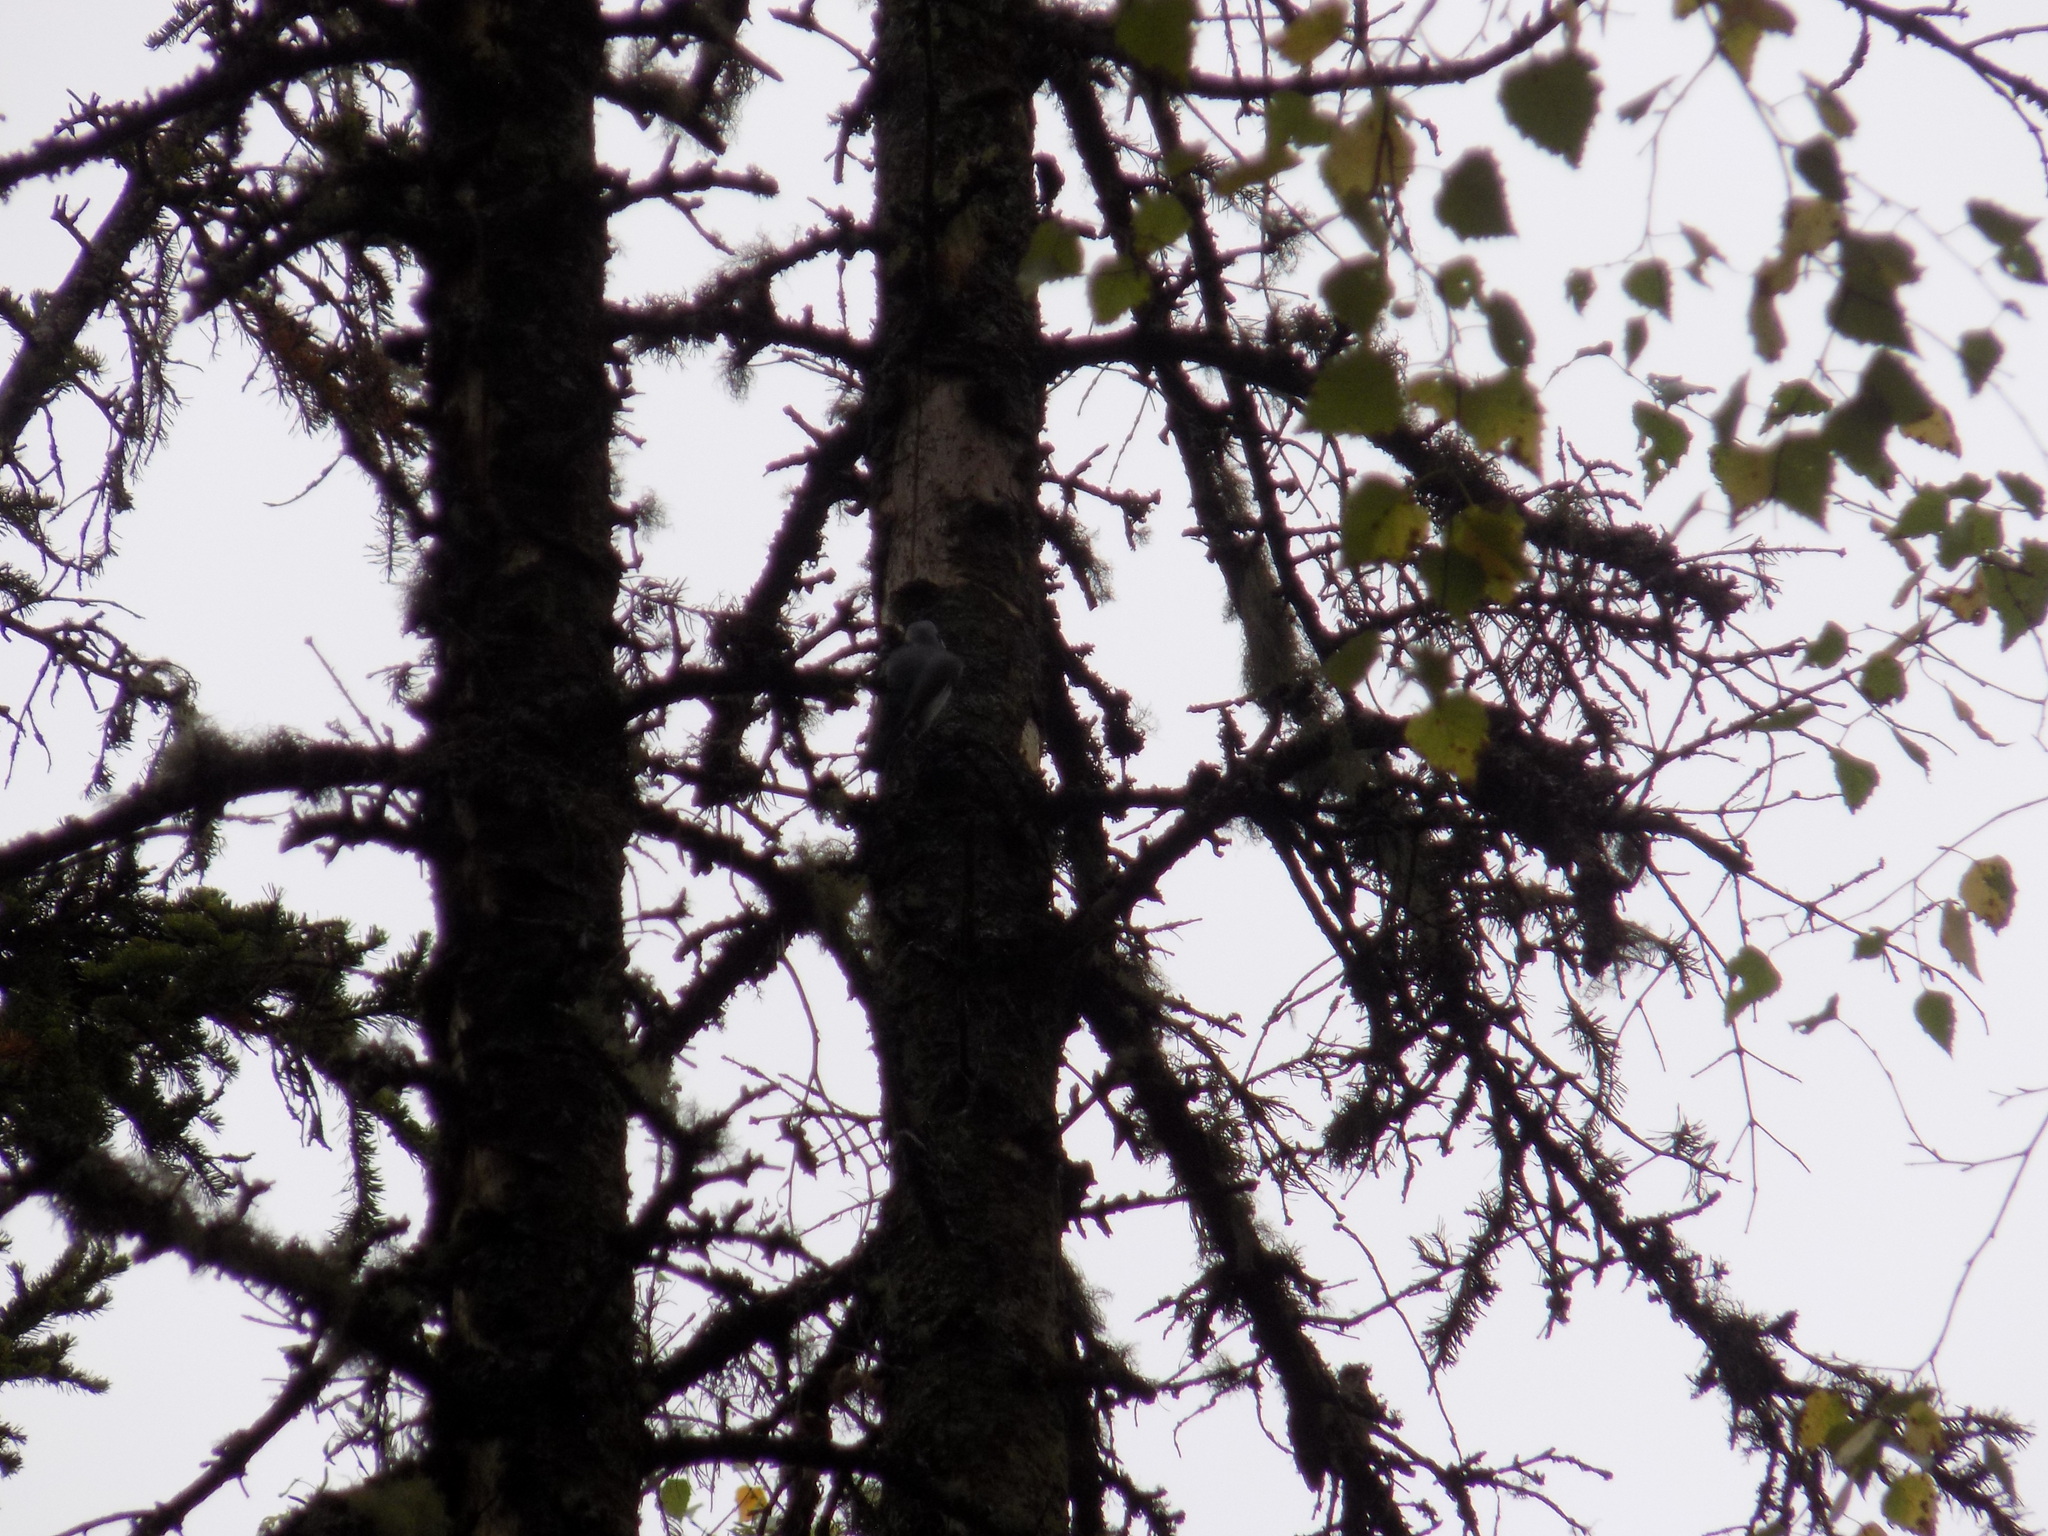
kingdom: Animalia
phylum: Chordata
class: Aves
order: Passeriformes
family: Sittidae
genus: Sitta
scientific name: Sitta europaea
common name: Eurasian nuthatch
